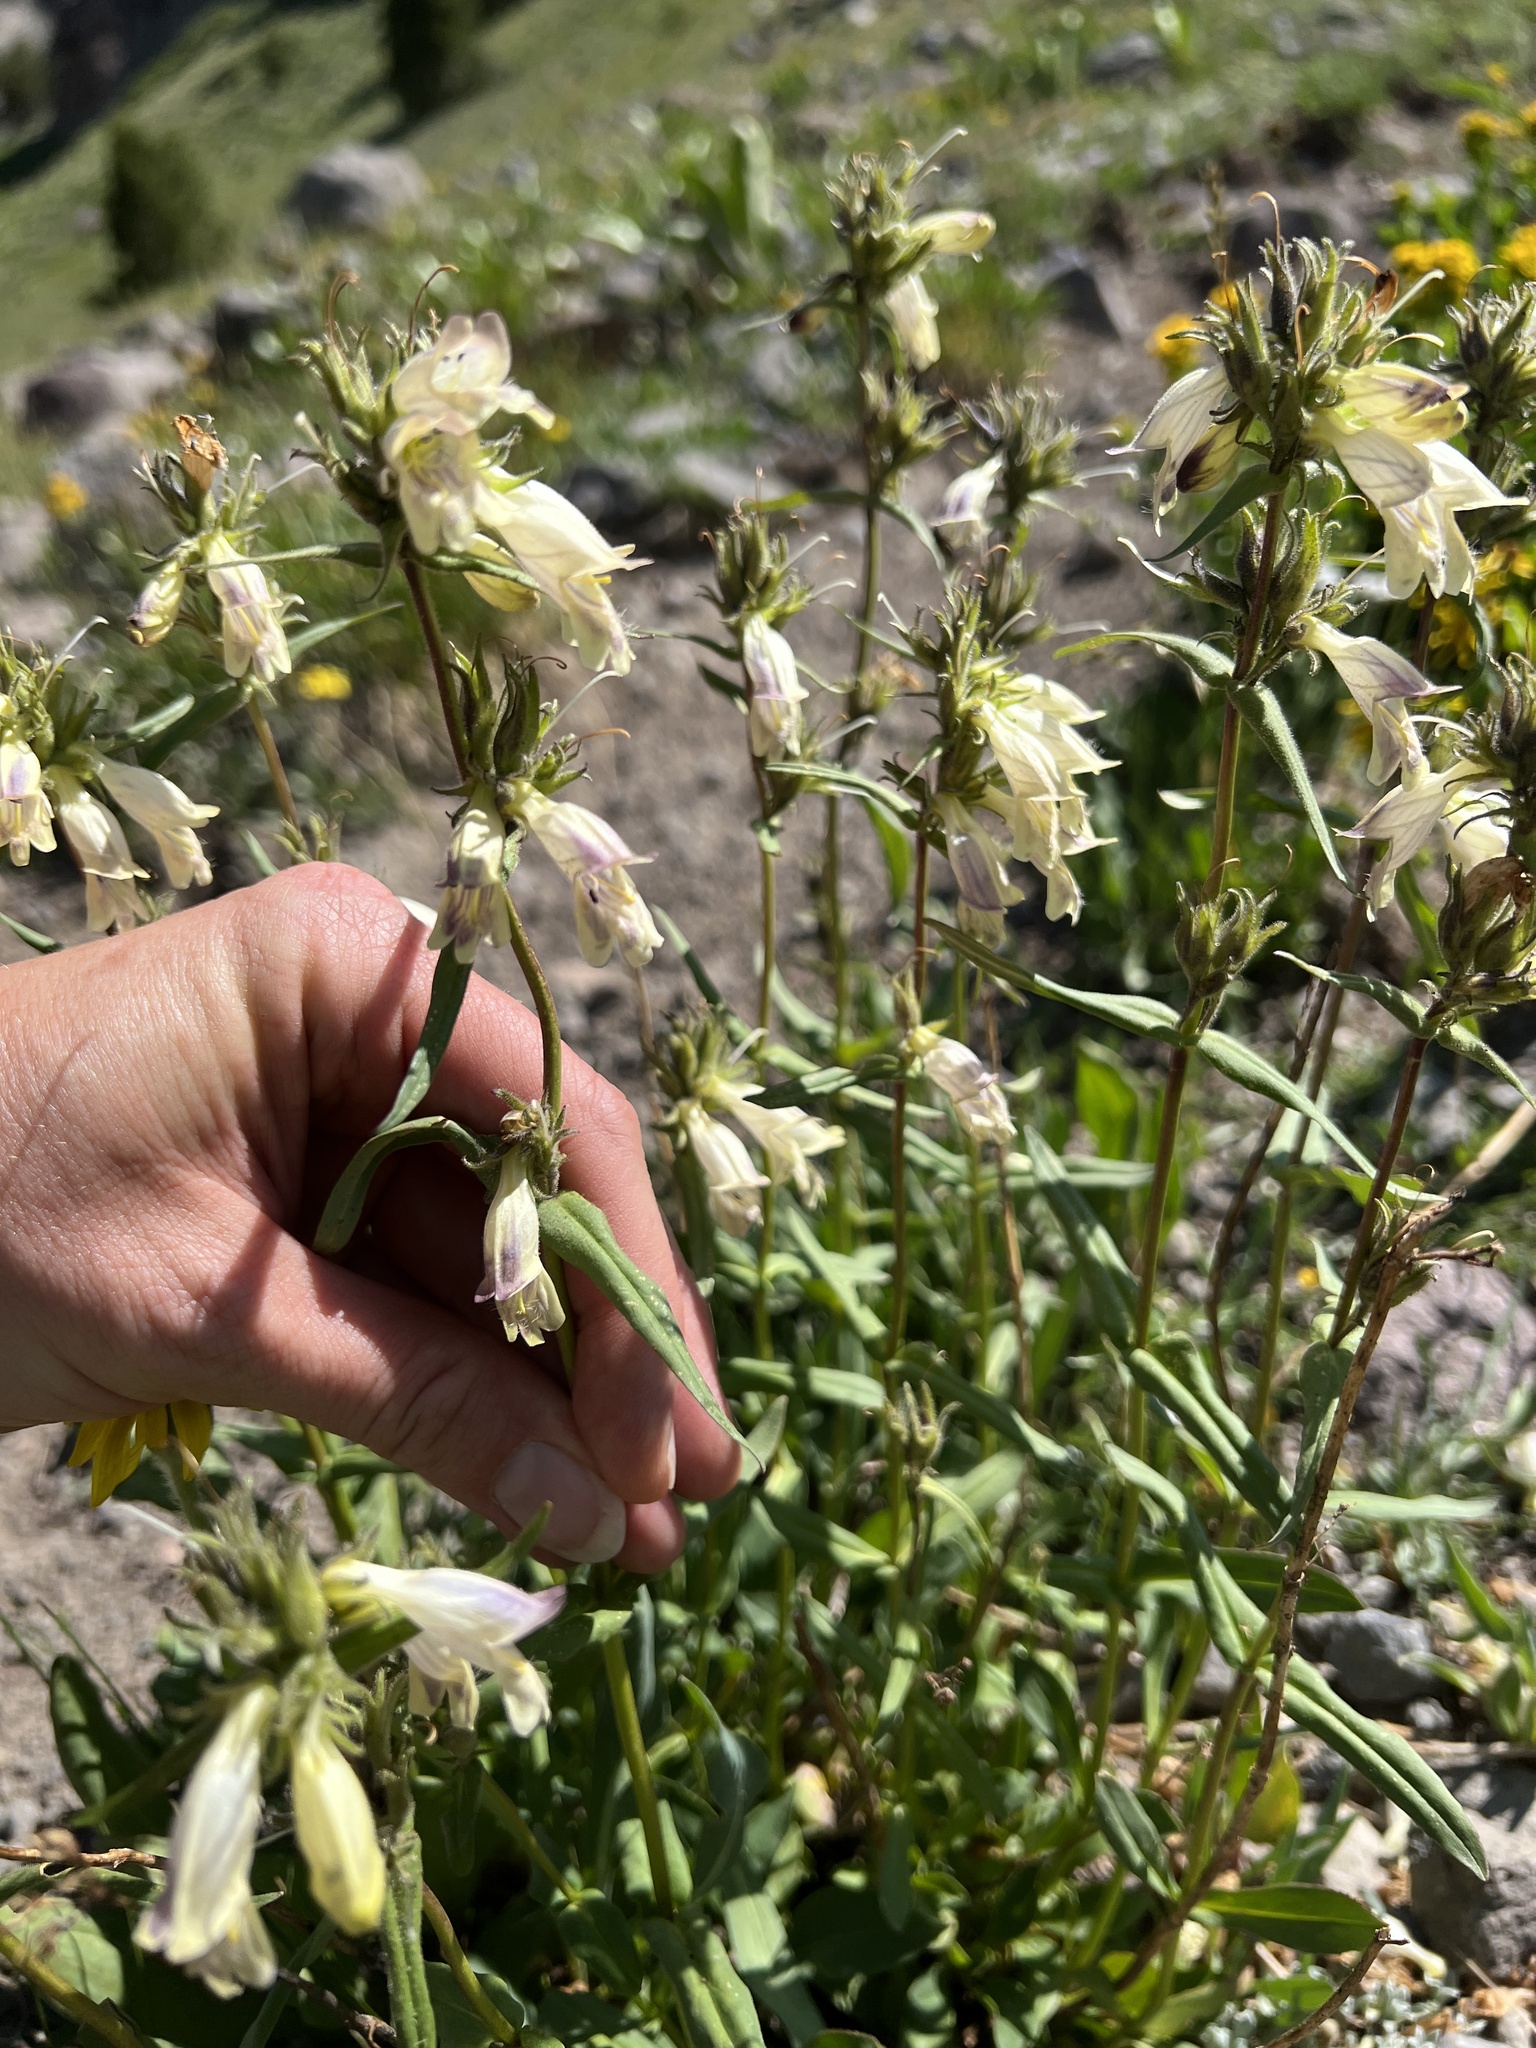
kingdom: Plantae
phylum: Tracheophyta
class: Magnoliopsida
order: Lamiales
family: Plantaginaceae
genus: Penstemon
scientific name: Penstemon whippleanus
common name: Whipple's penstemon
